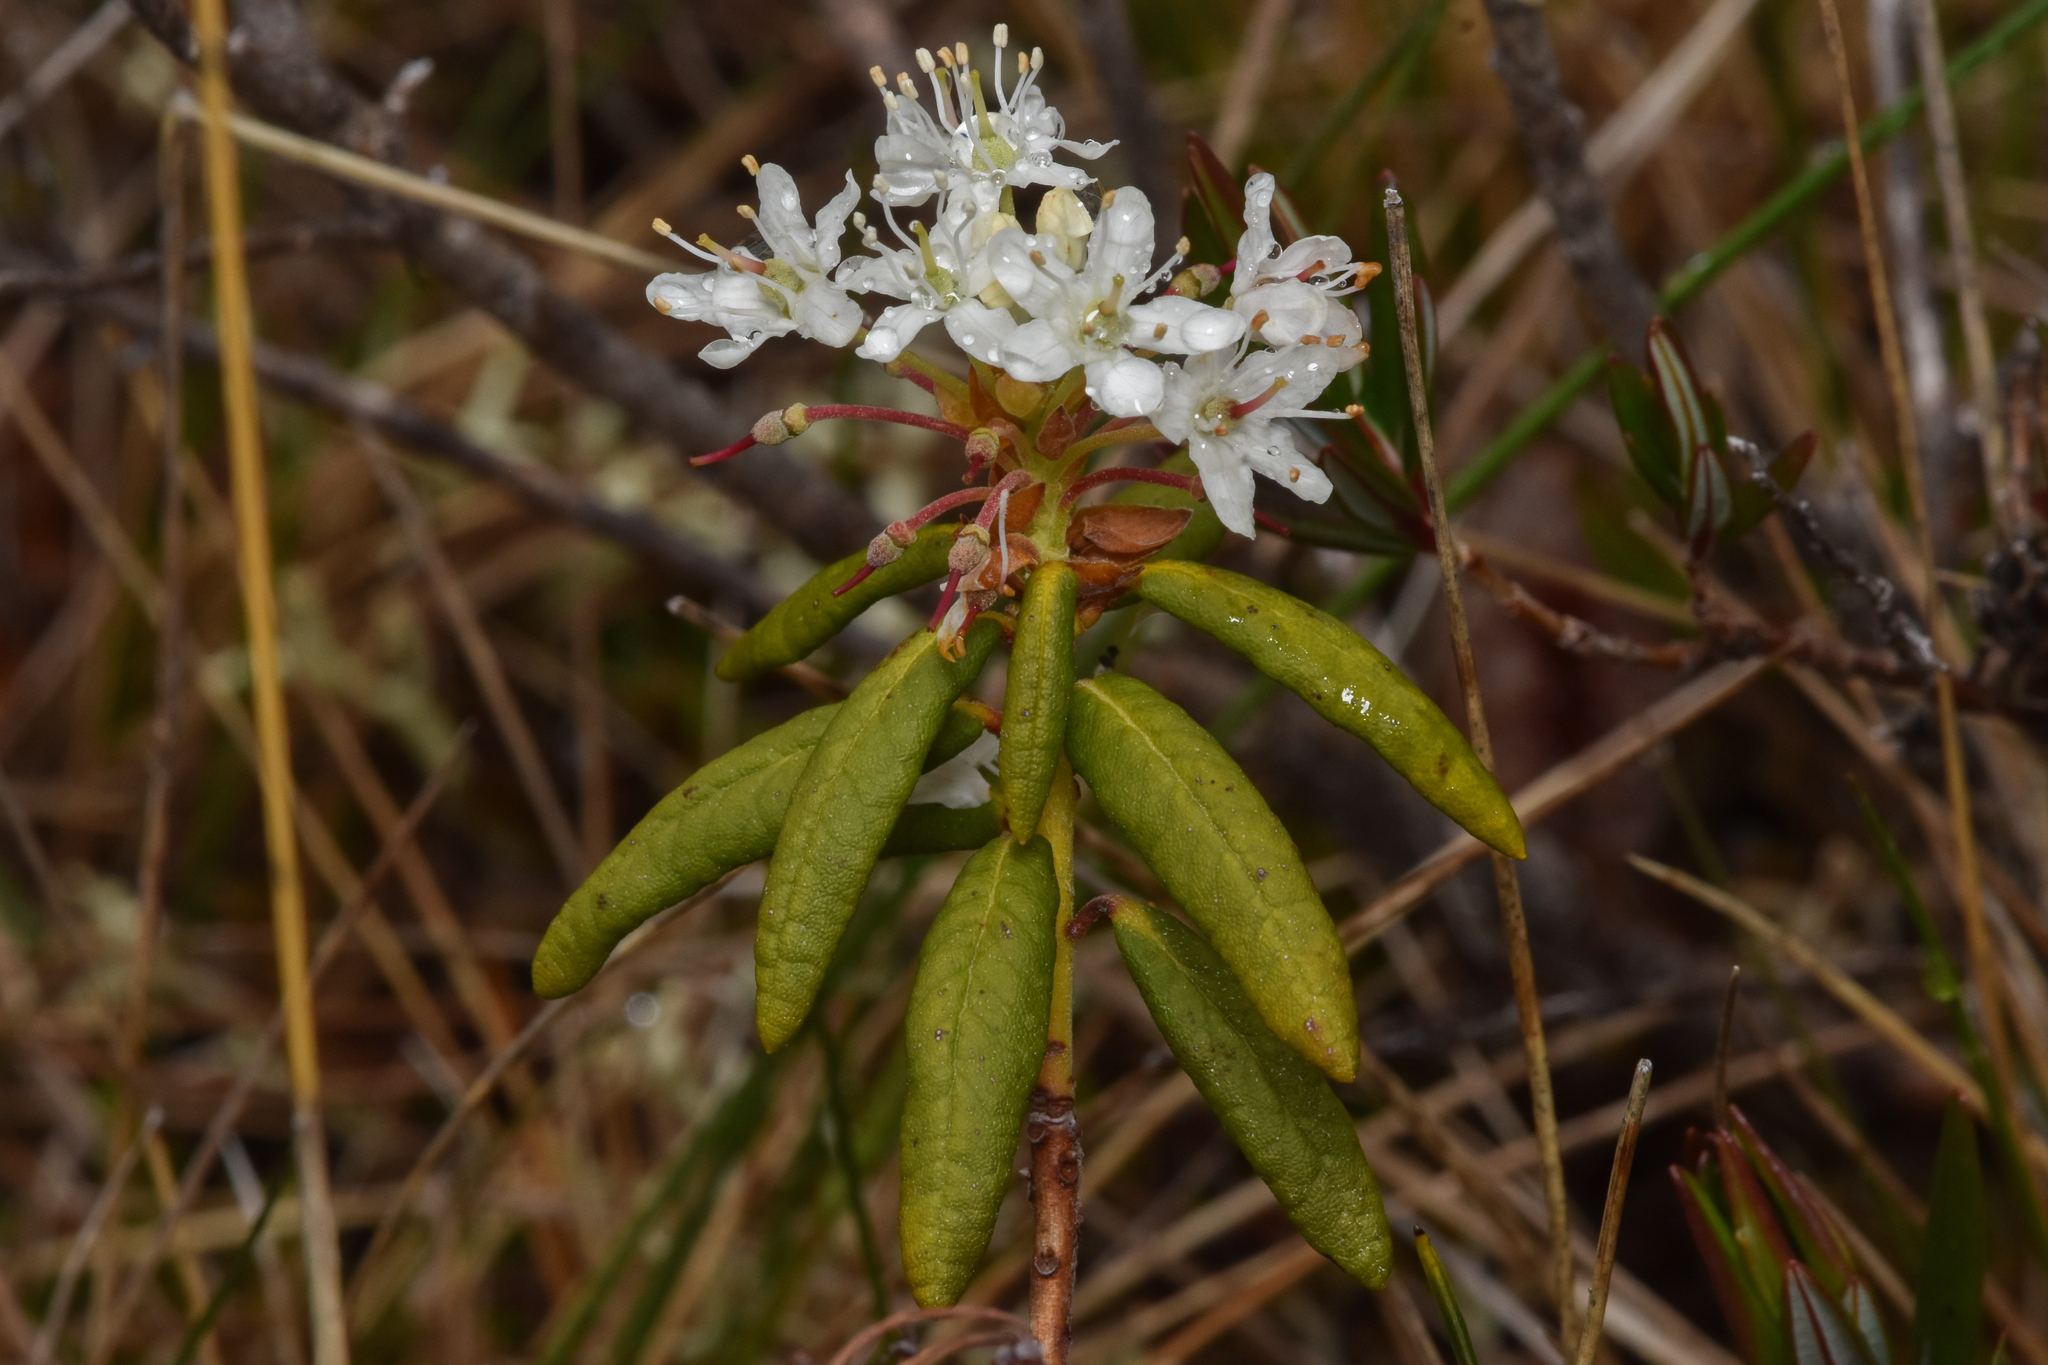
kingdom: Plantae
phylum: Tracheophyta
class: Magnoliopsida
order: Ericales
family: Ericaceae
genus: Rhododendron
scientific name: Rhododendron groenlandicum
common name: Bog labrador tea
